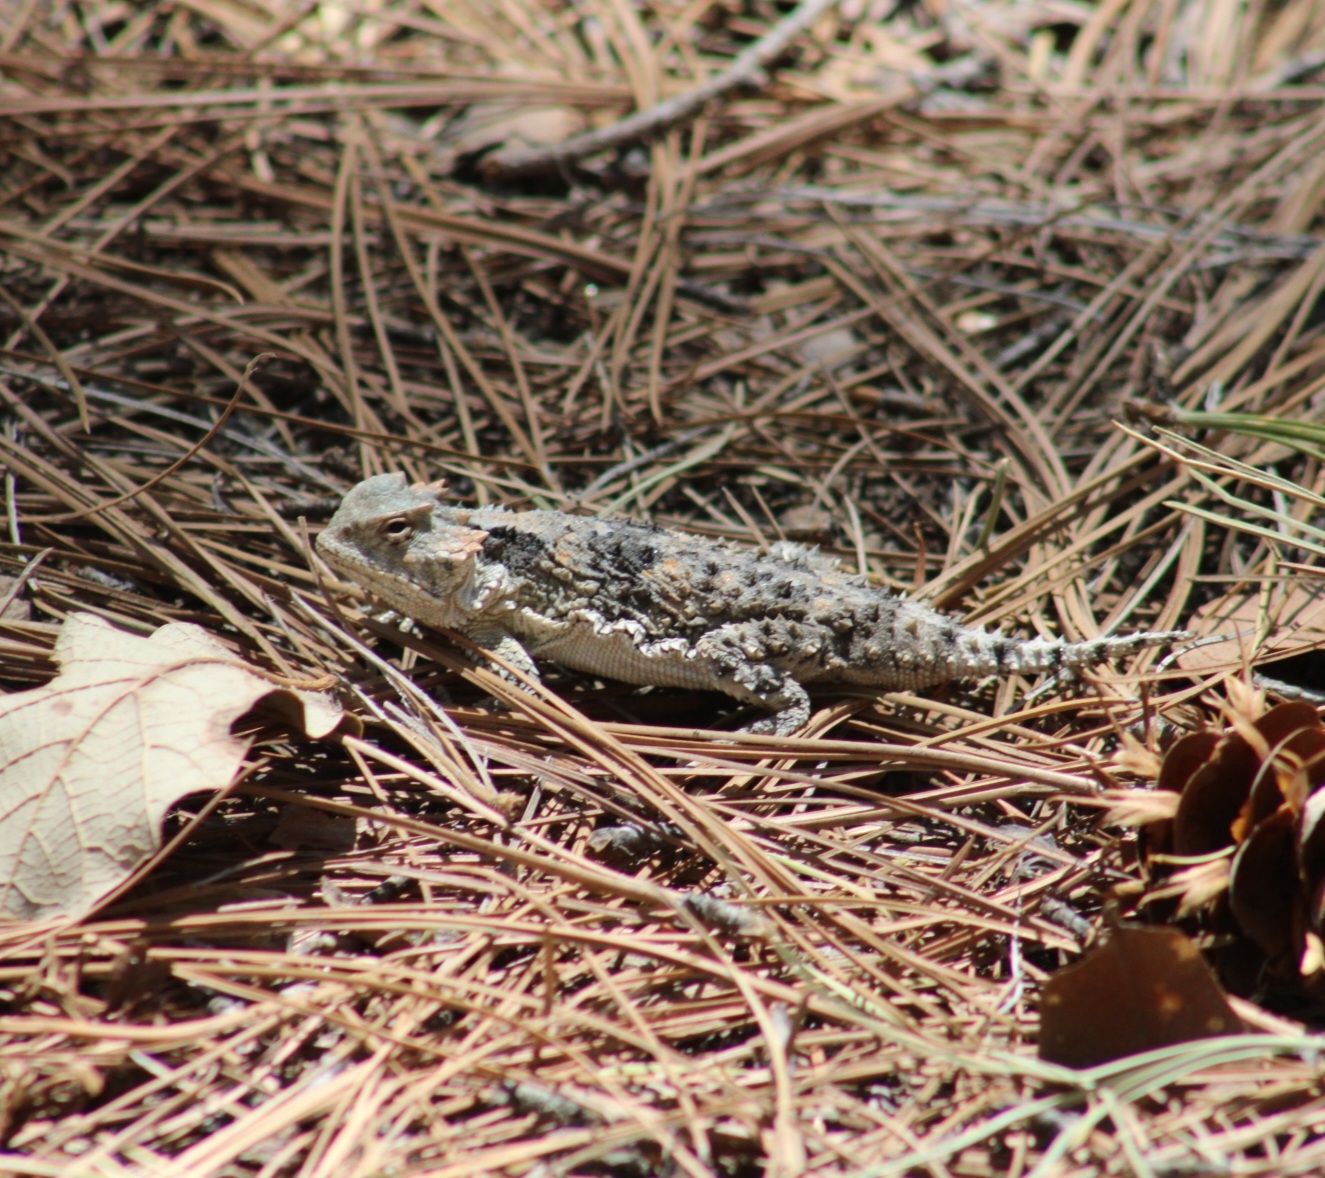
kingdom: Animalia
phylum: Chordata
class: Squamata
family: Phrynosomatidae
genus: Phrynosoma
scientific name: Phrynosoma hernandesi
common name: Greater short-horned lizard
